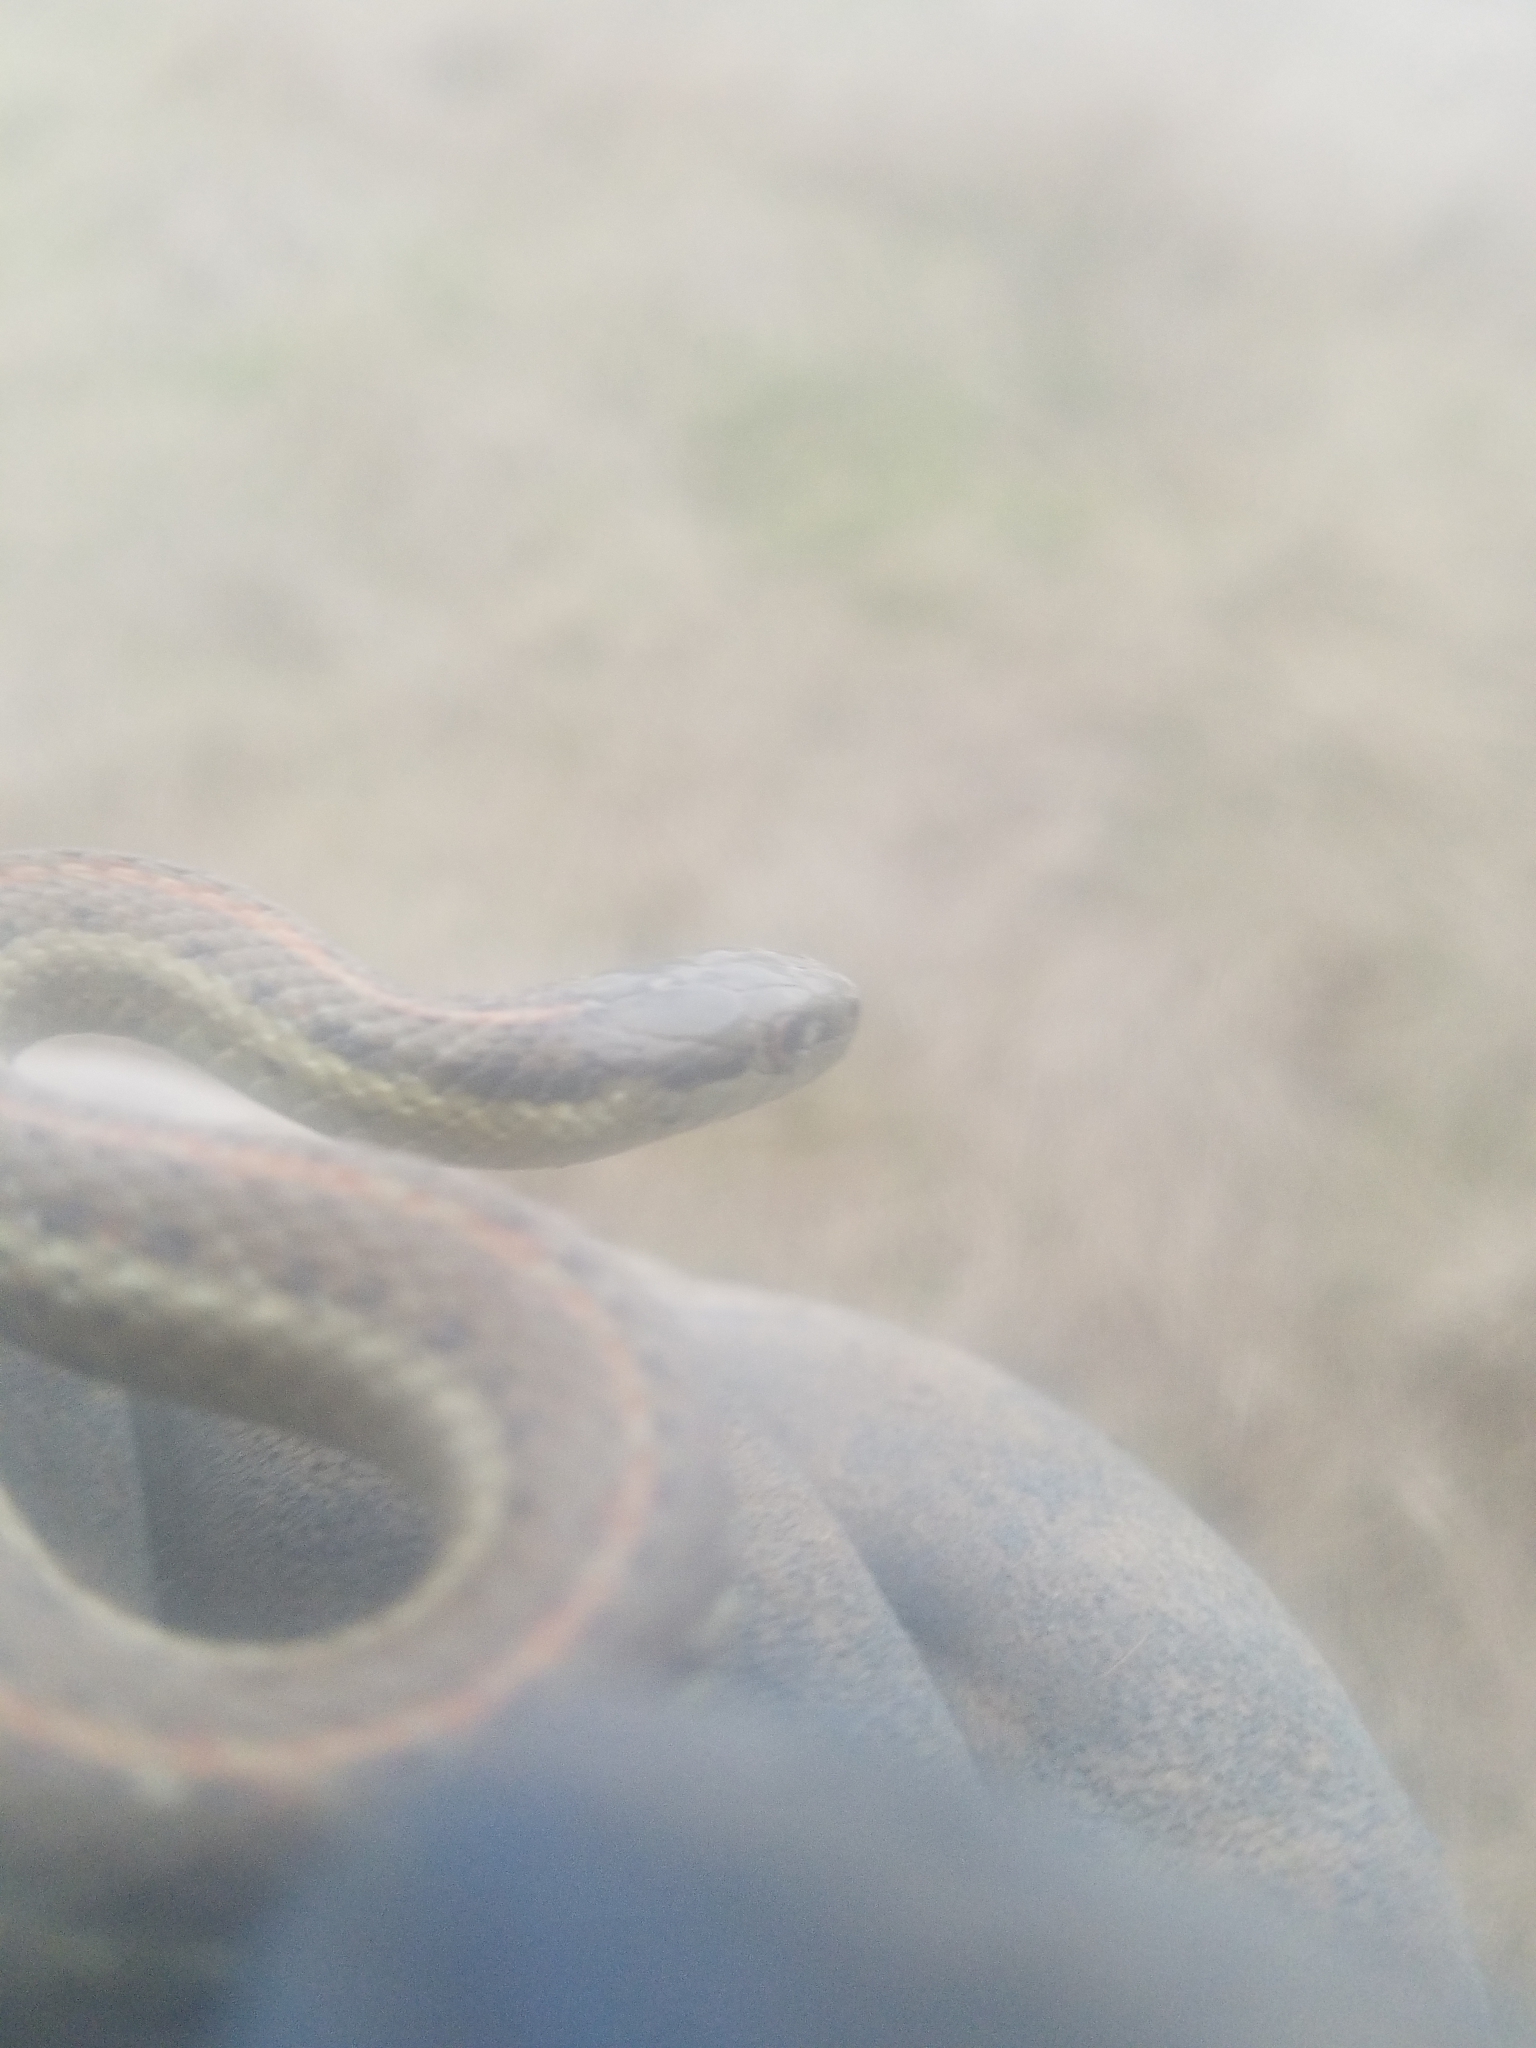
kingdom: Animalia
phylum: Chordata
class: Squamata
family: Colubridae
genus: Thamnophis
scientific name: Thamnophis ordinoides
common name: Northwestern garter snake
